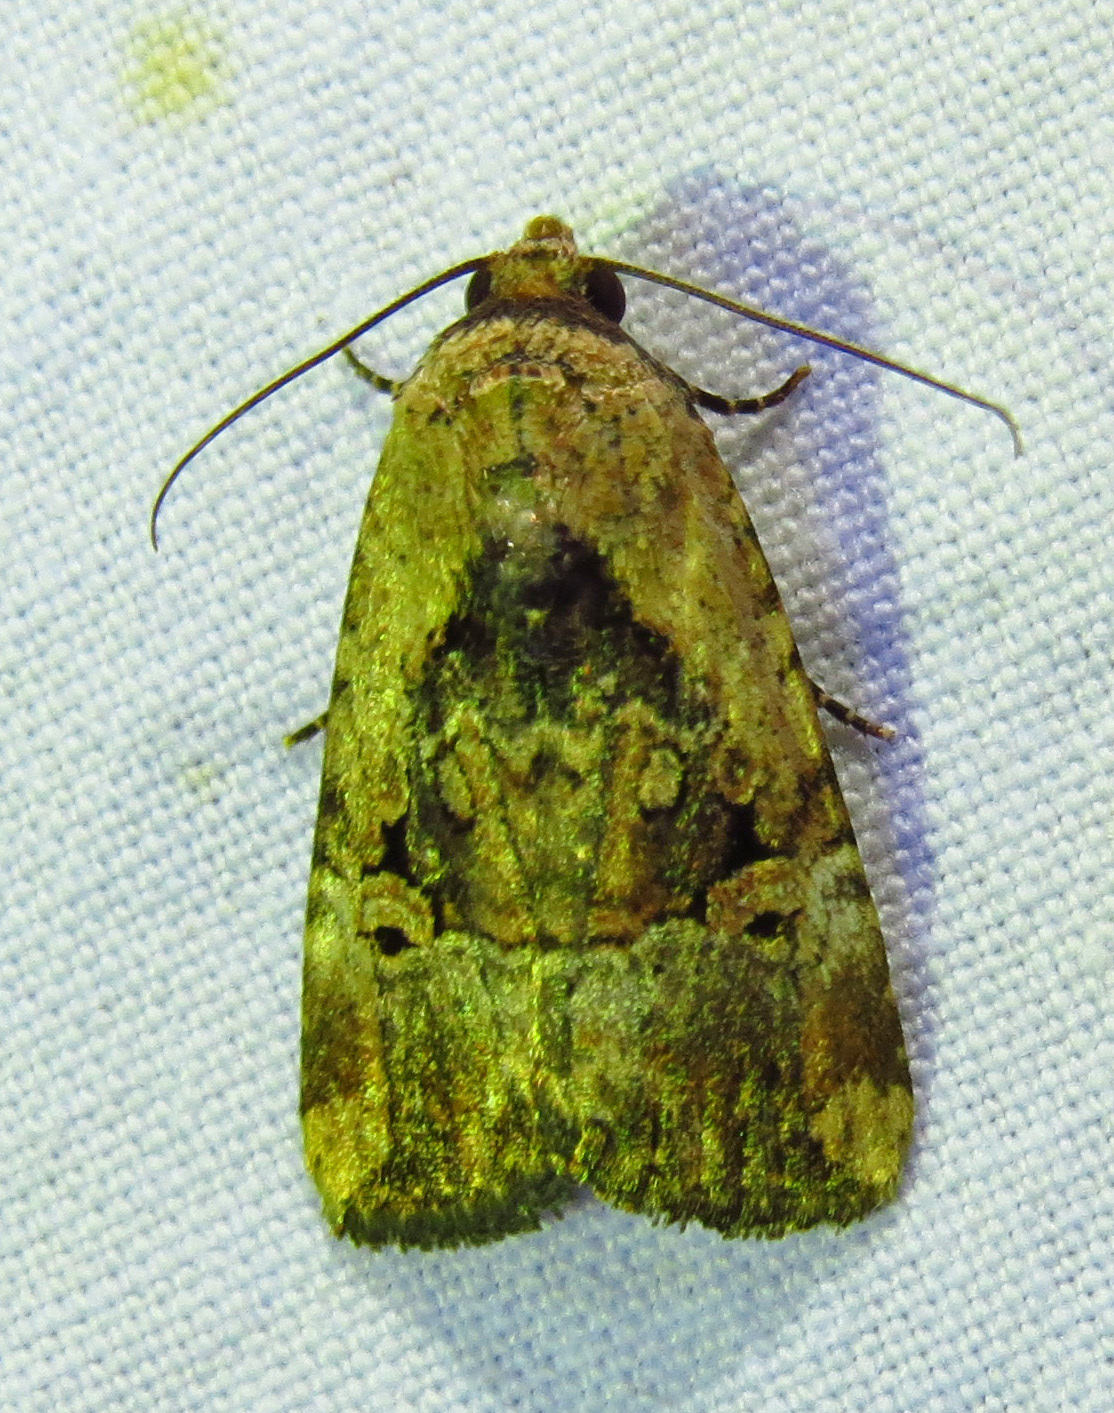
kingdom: Animalia
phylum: Arthropoda
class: Insecta
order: Lepidoptera
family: Noctuidae
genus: Elaphria
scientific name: Elaphria chalcedonia
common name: Chalcedony midget
